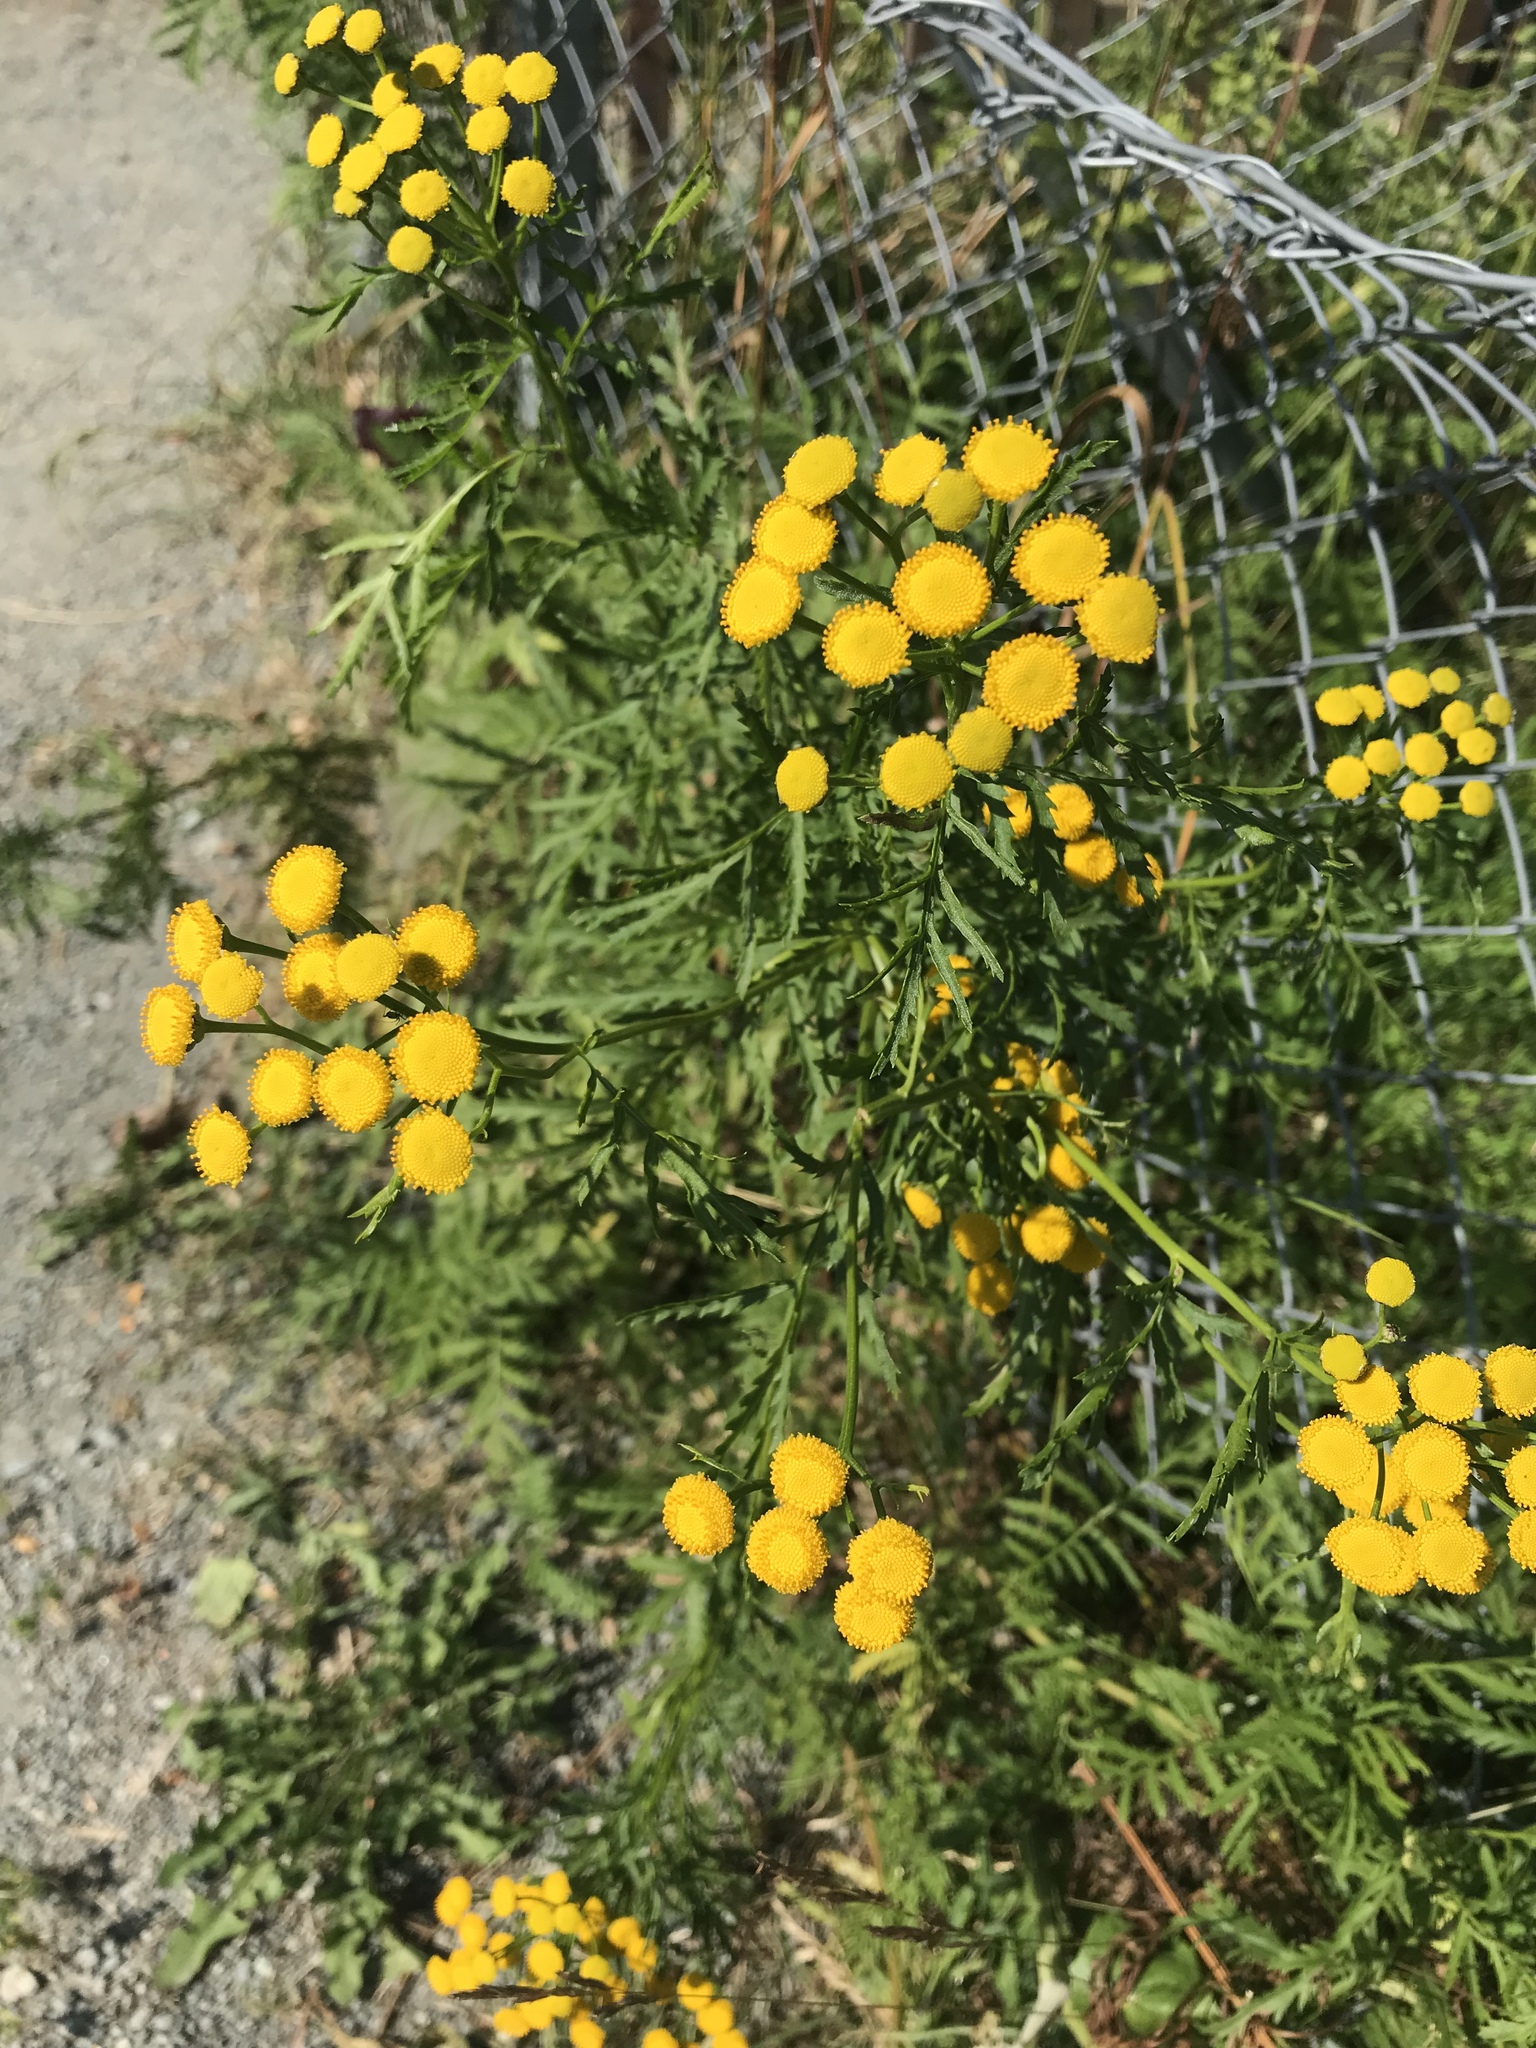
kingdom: Plantae
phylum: Tracheophyta
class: Magnoliopsida
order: Asterales
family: Asteraceae
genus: Tanacetum
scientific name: Tanacetum vulgare
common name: Common tansy
